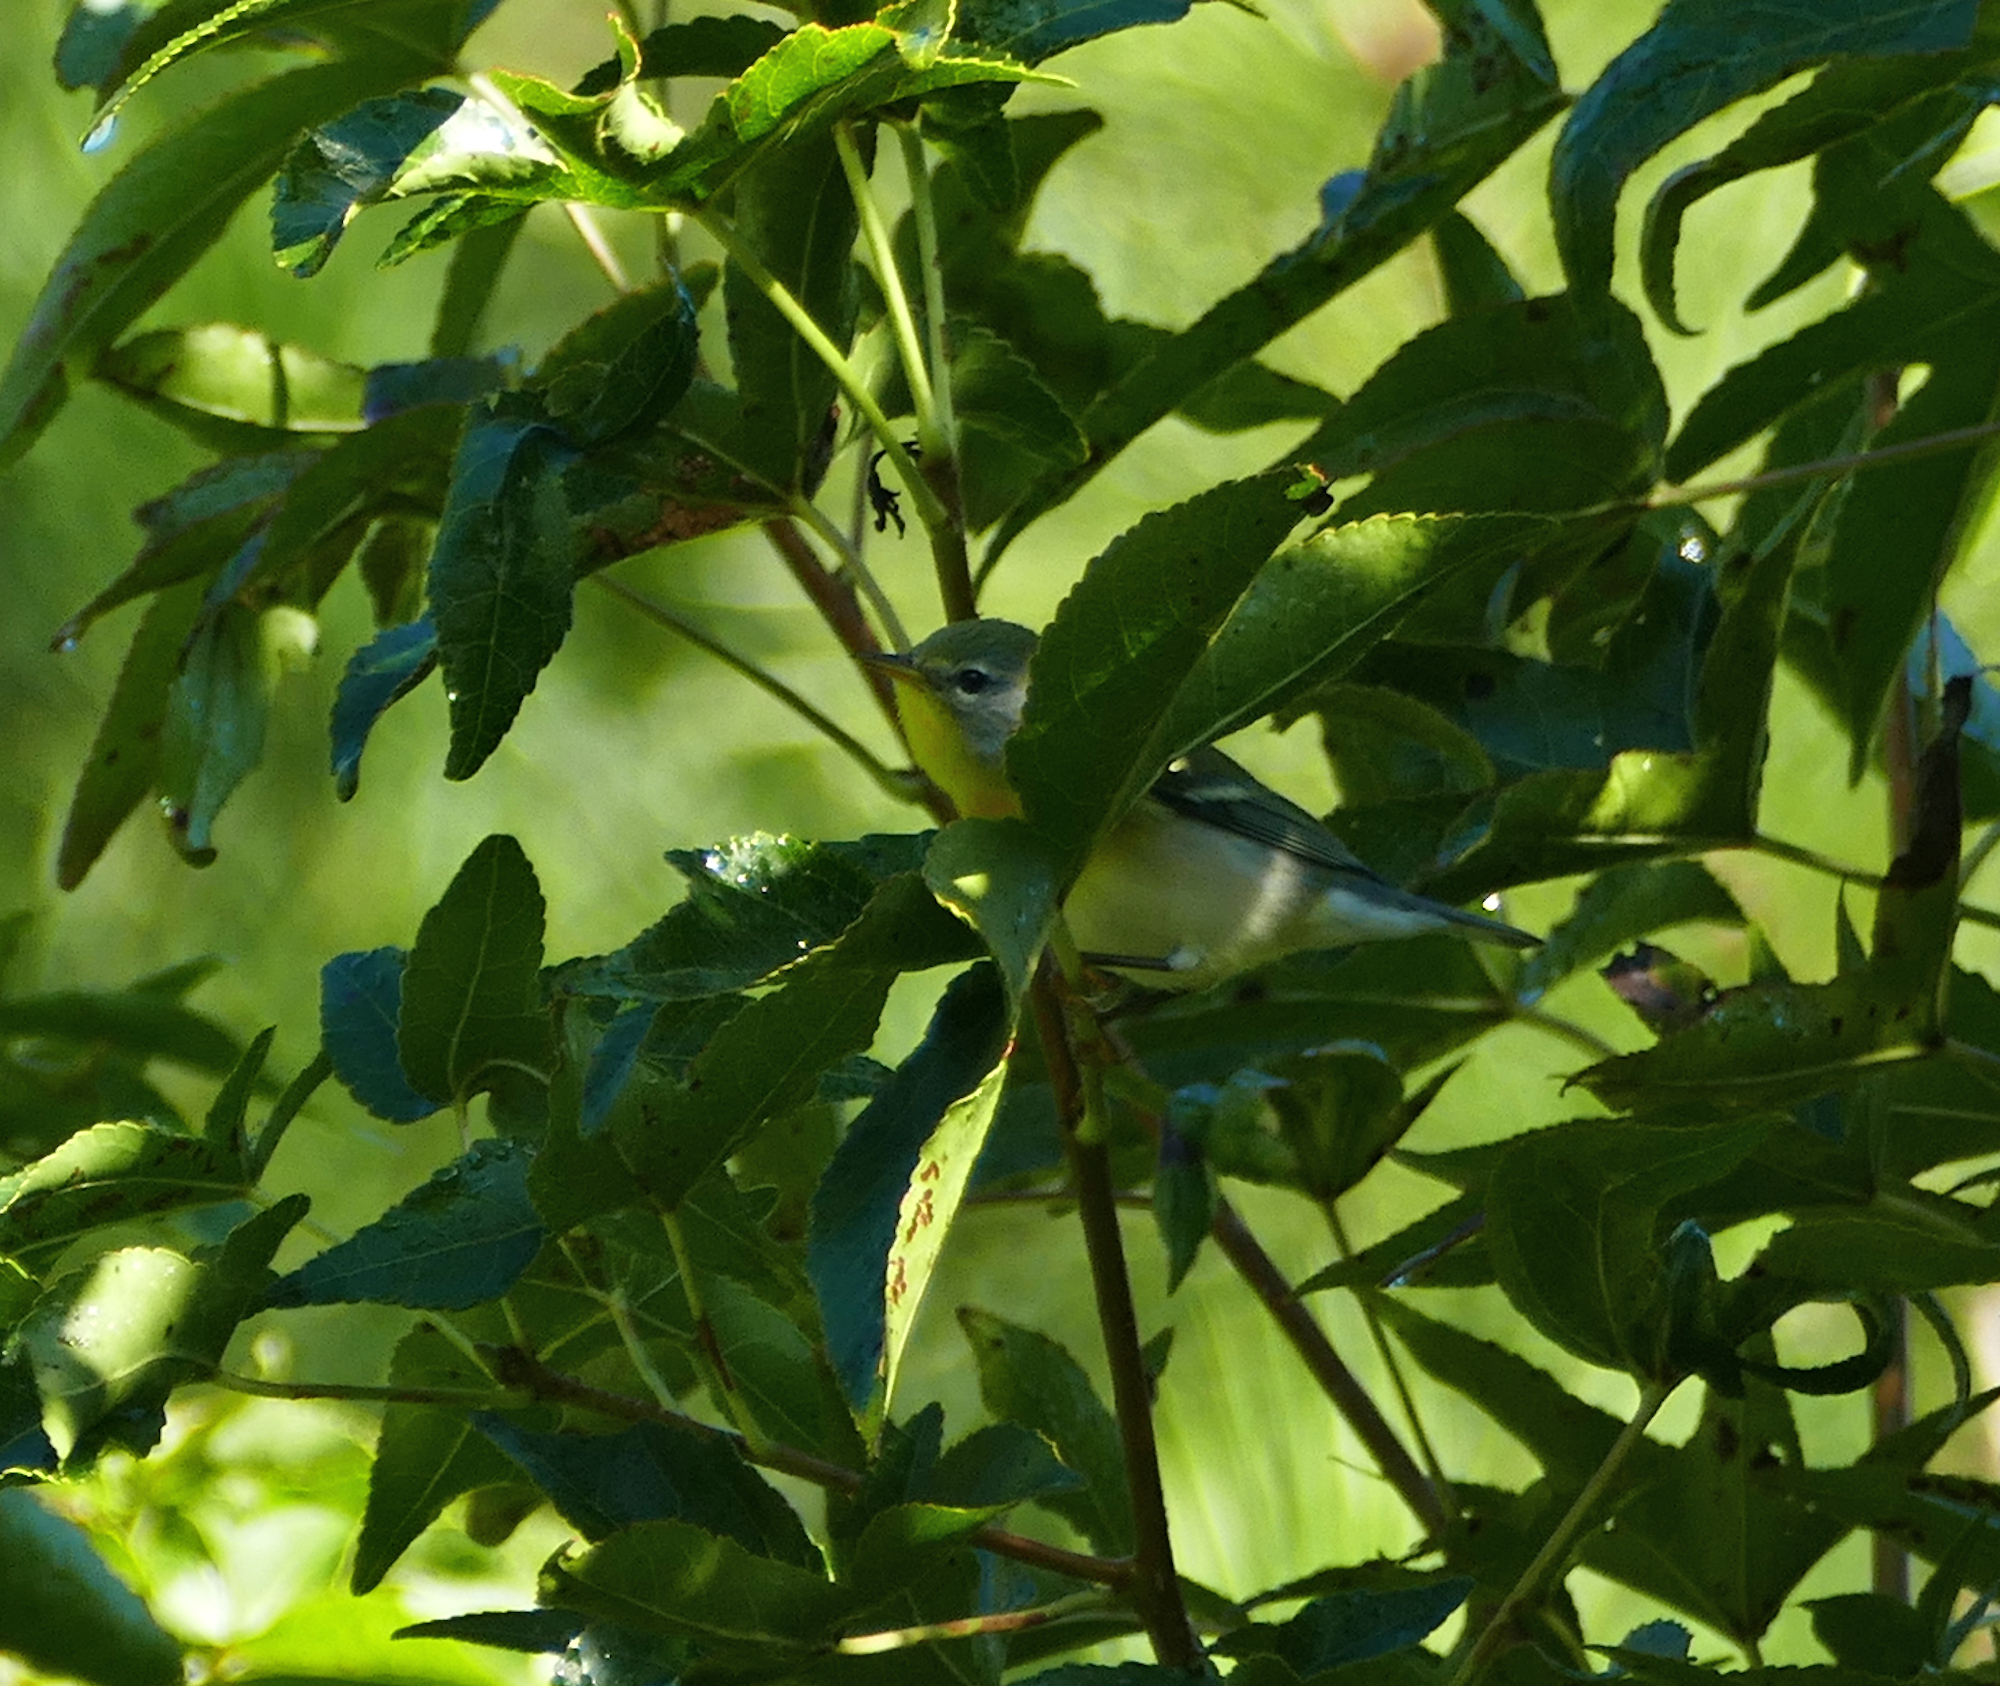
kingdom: Animalia
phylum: Chordata
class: Aves
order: Passeriformes
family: Parulidae
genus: Setophaga
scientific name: Setophaga americana
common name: Northern parula
